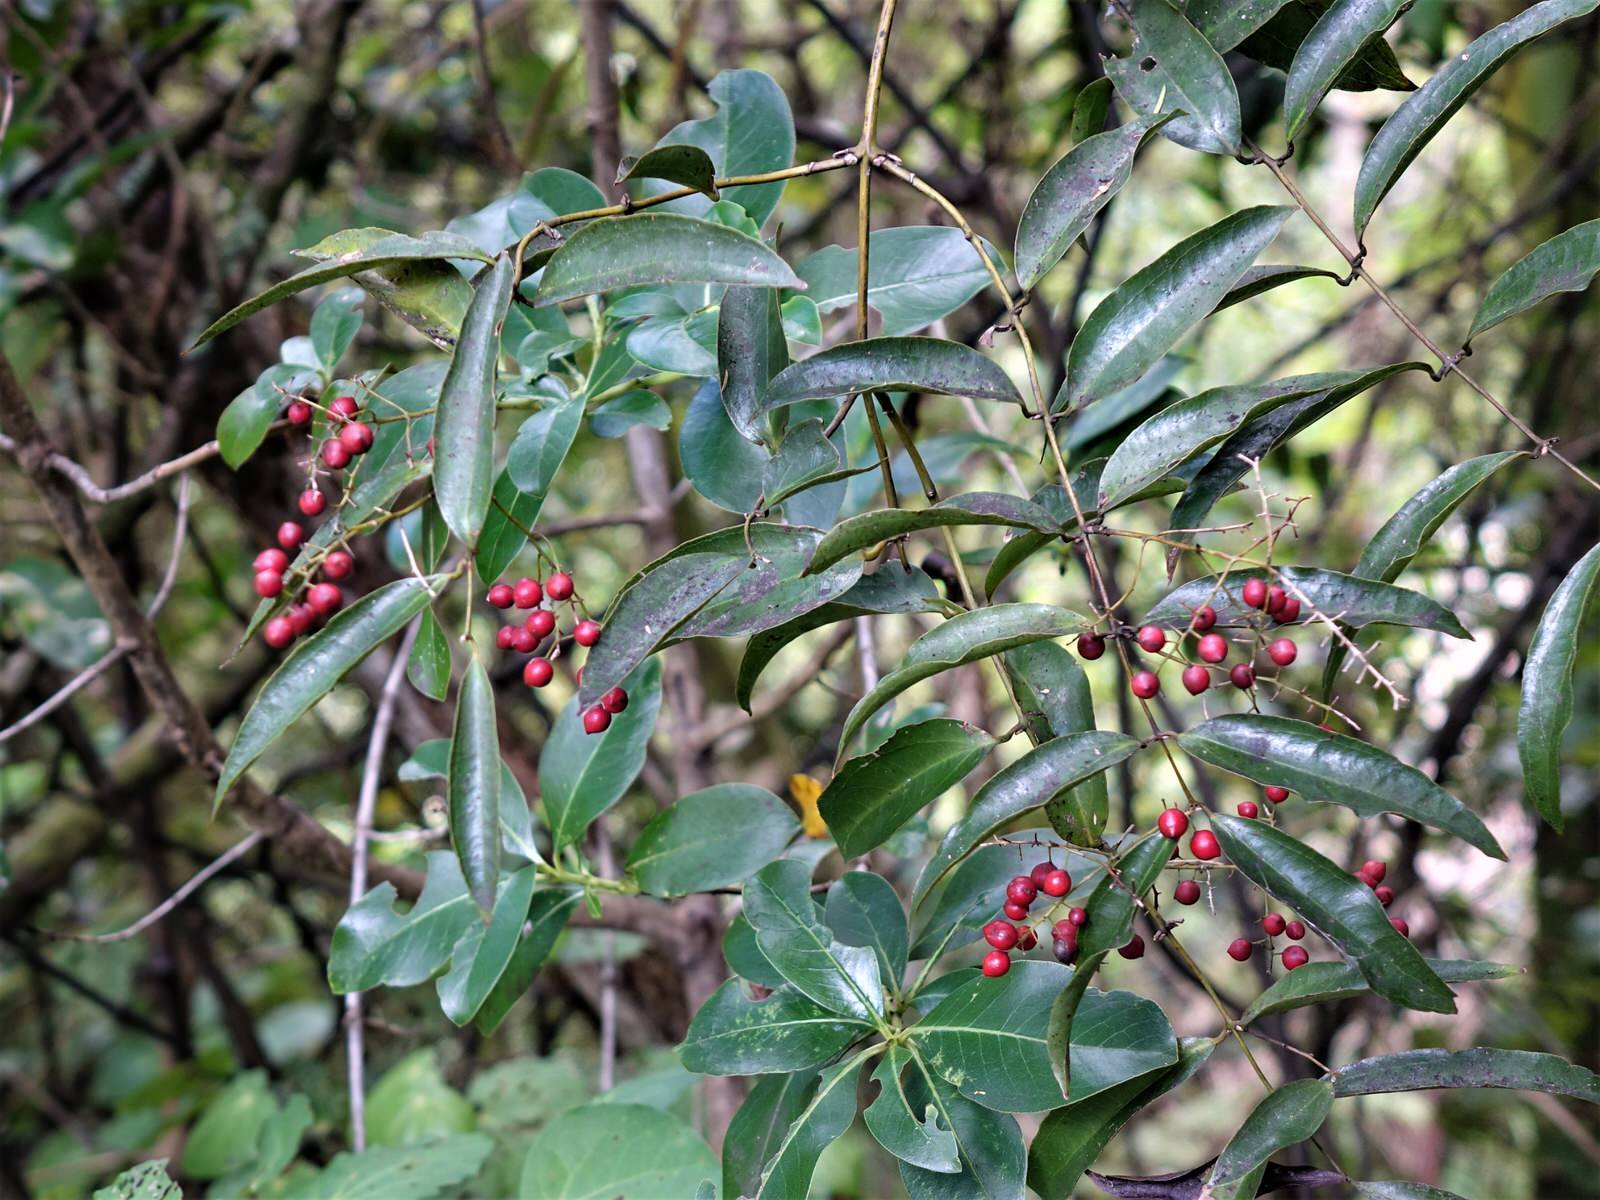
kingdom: Plantae
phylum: Tracheophyta
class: Liliopsida
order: Liliales
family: Ripogonaceae
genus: Ripogonum
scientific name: Ripogonum scandens
